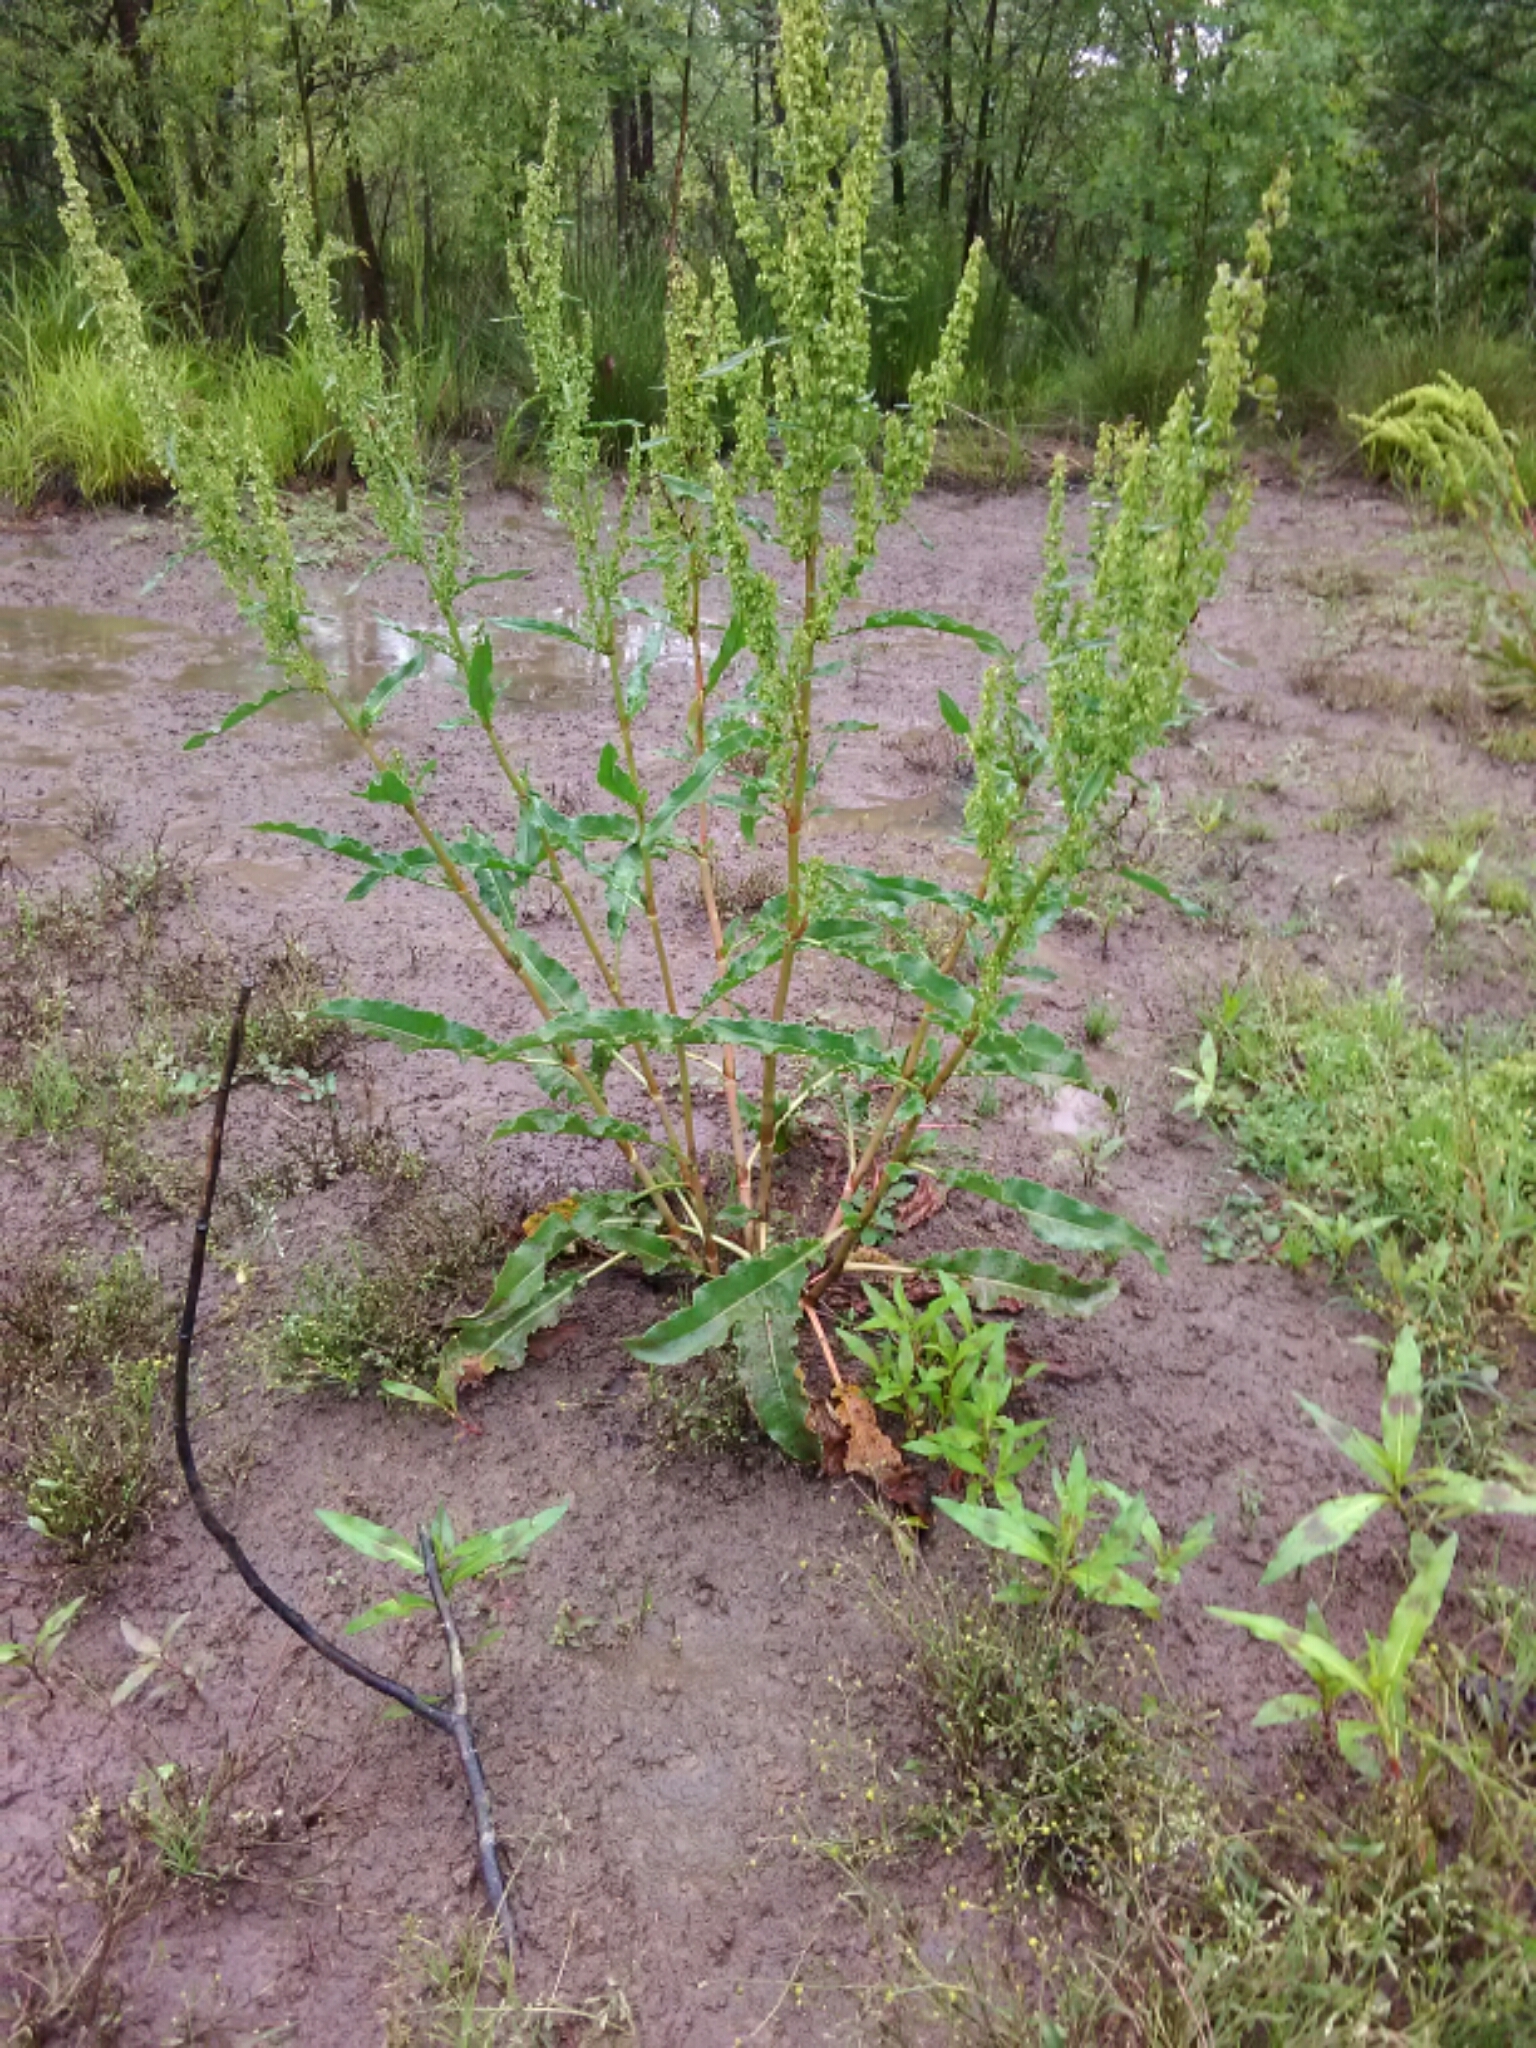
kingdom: Plantae
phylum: Tracheophyta
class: Magnoliopsida
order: Caryophyllales
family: Polygonaceae
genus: Rumex
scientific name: Rumex crispus
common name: Curled dock
